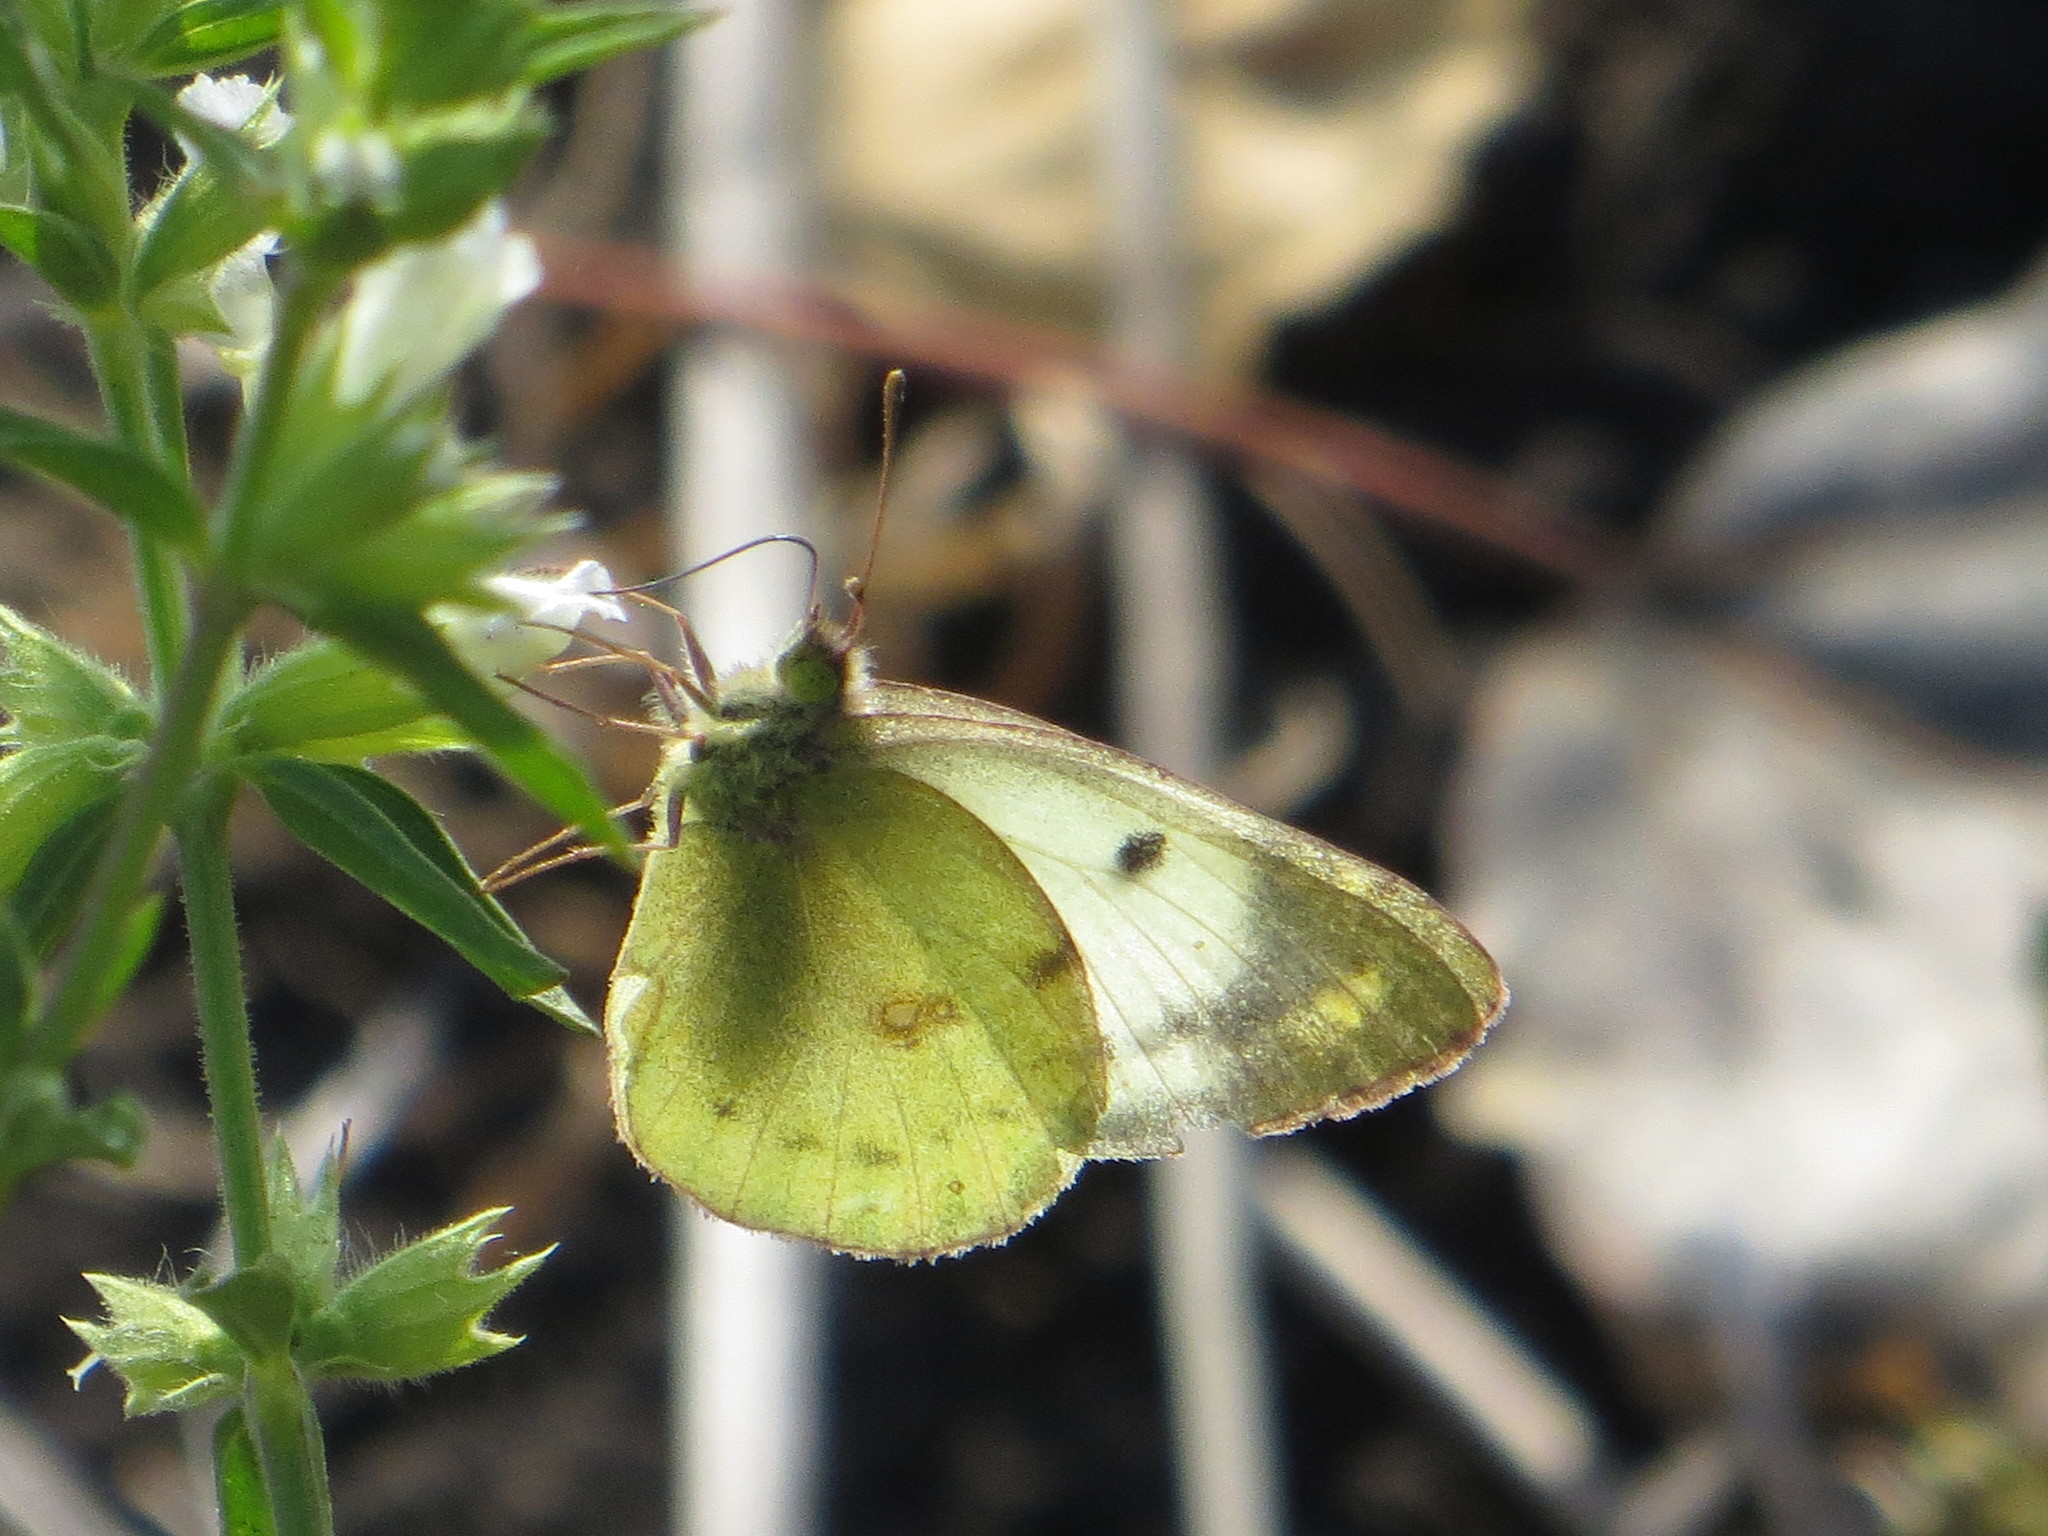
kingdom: Animalia
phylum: Arthropoda
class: Insecta
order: Lepidoptera
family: Pieridae
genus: Colias
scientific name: Colias hyale
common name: Pale clouded yellow
